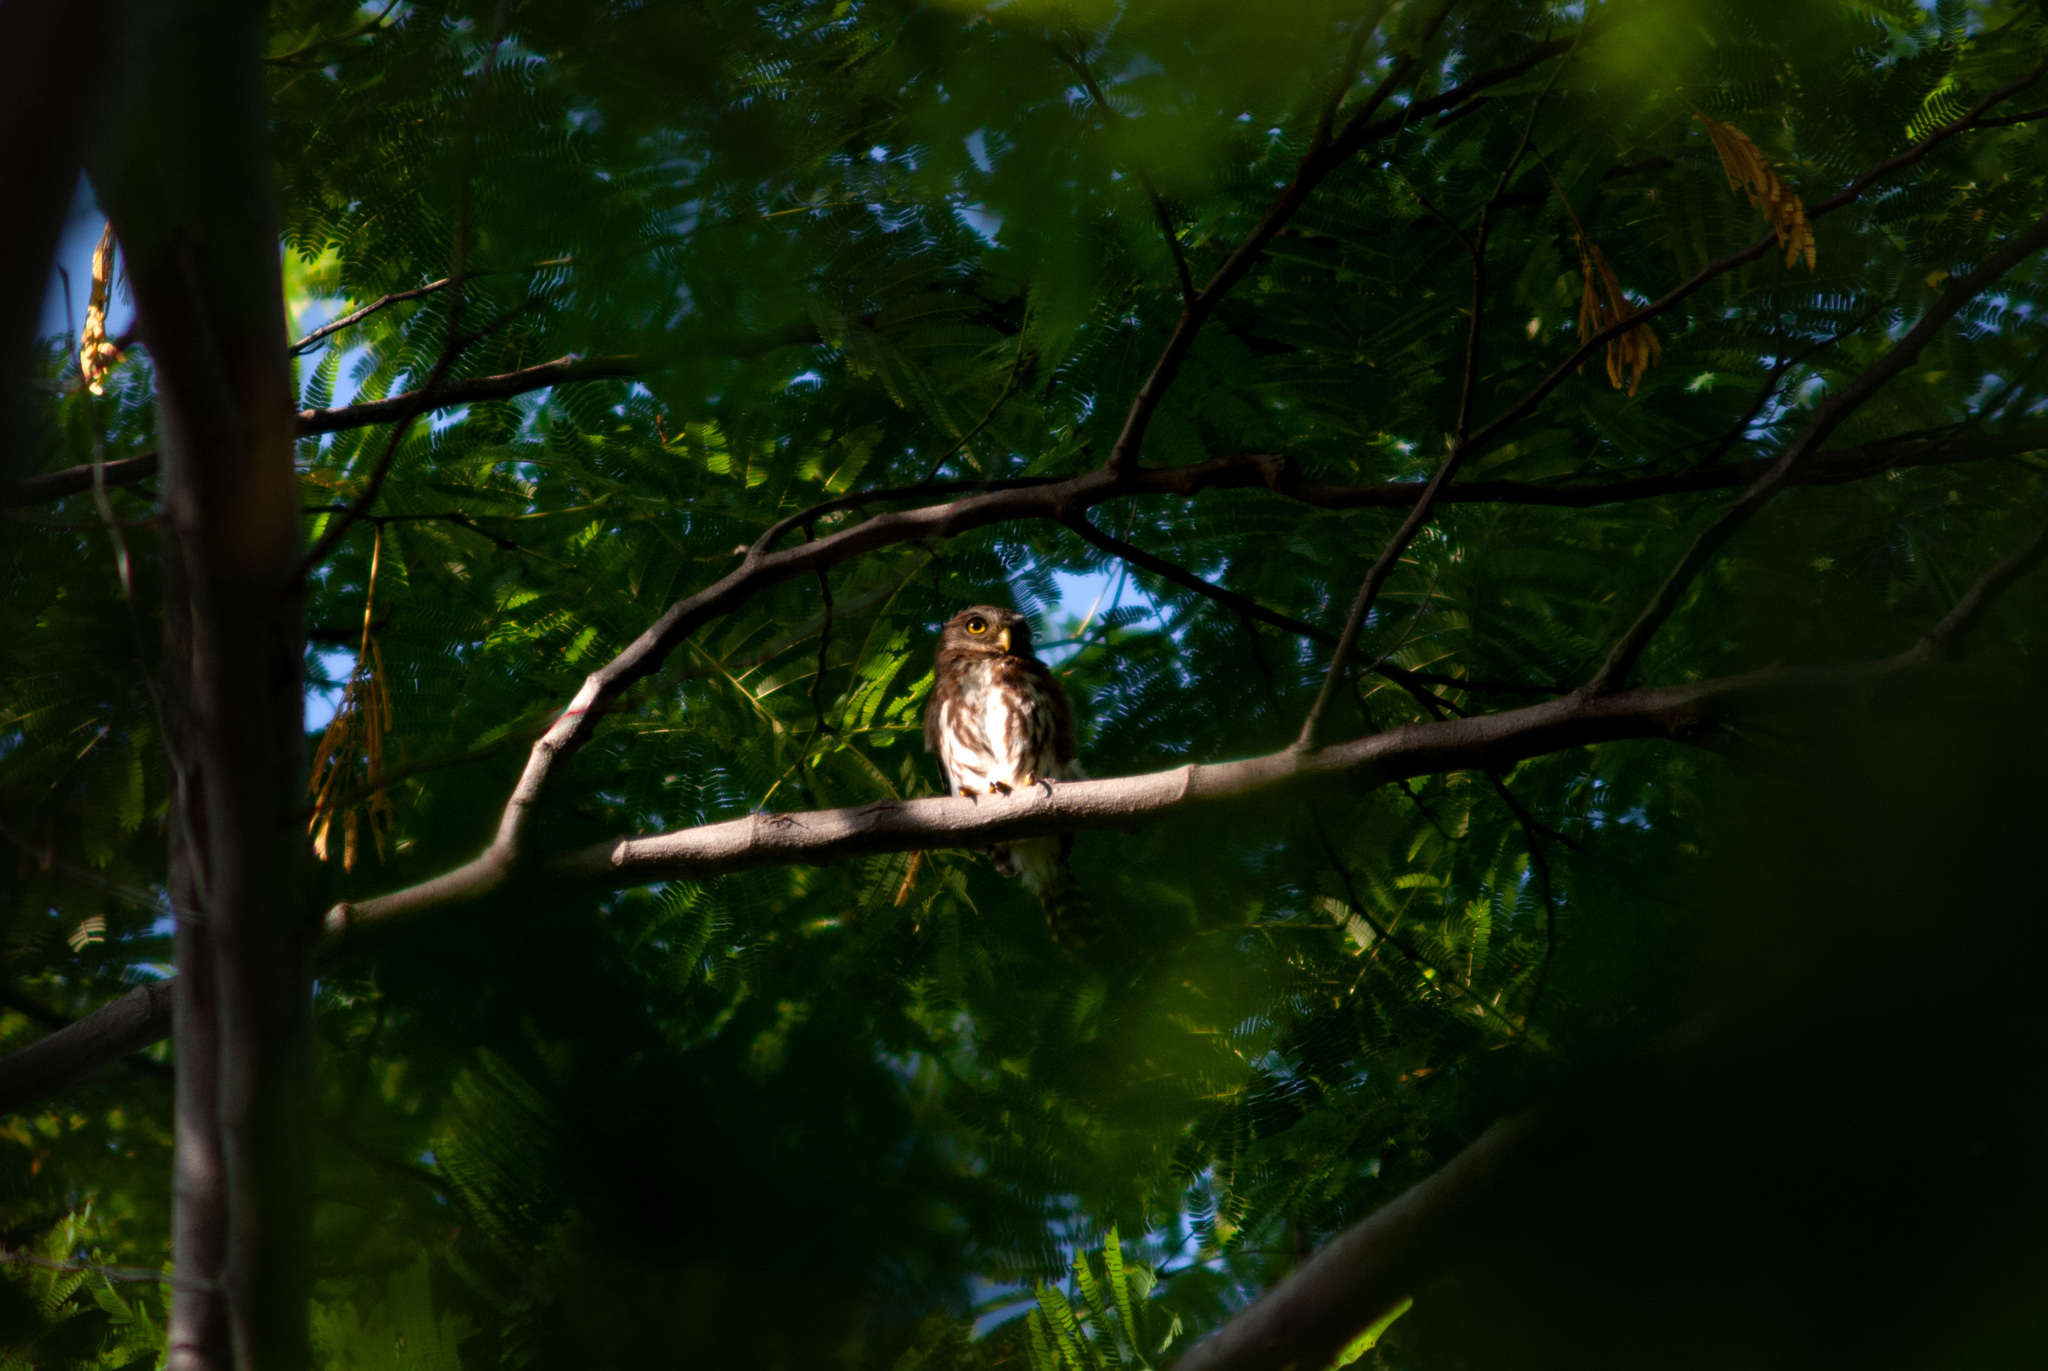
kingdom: Animalia
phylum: Chordata
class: Aves
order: Strigiformes
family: Strigidae
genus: Glaucidium
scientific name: Glaucidium brasilianum
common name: Ferruginous pygmy-owl
